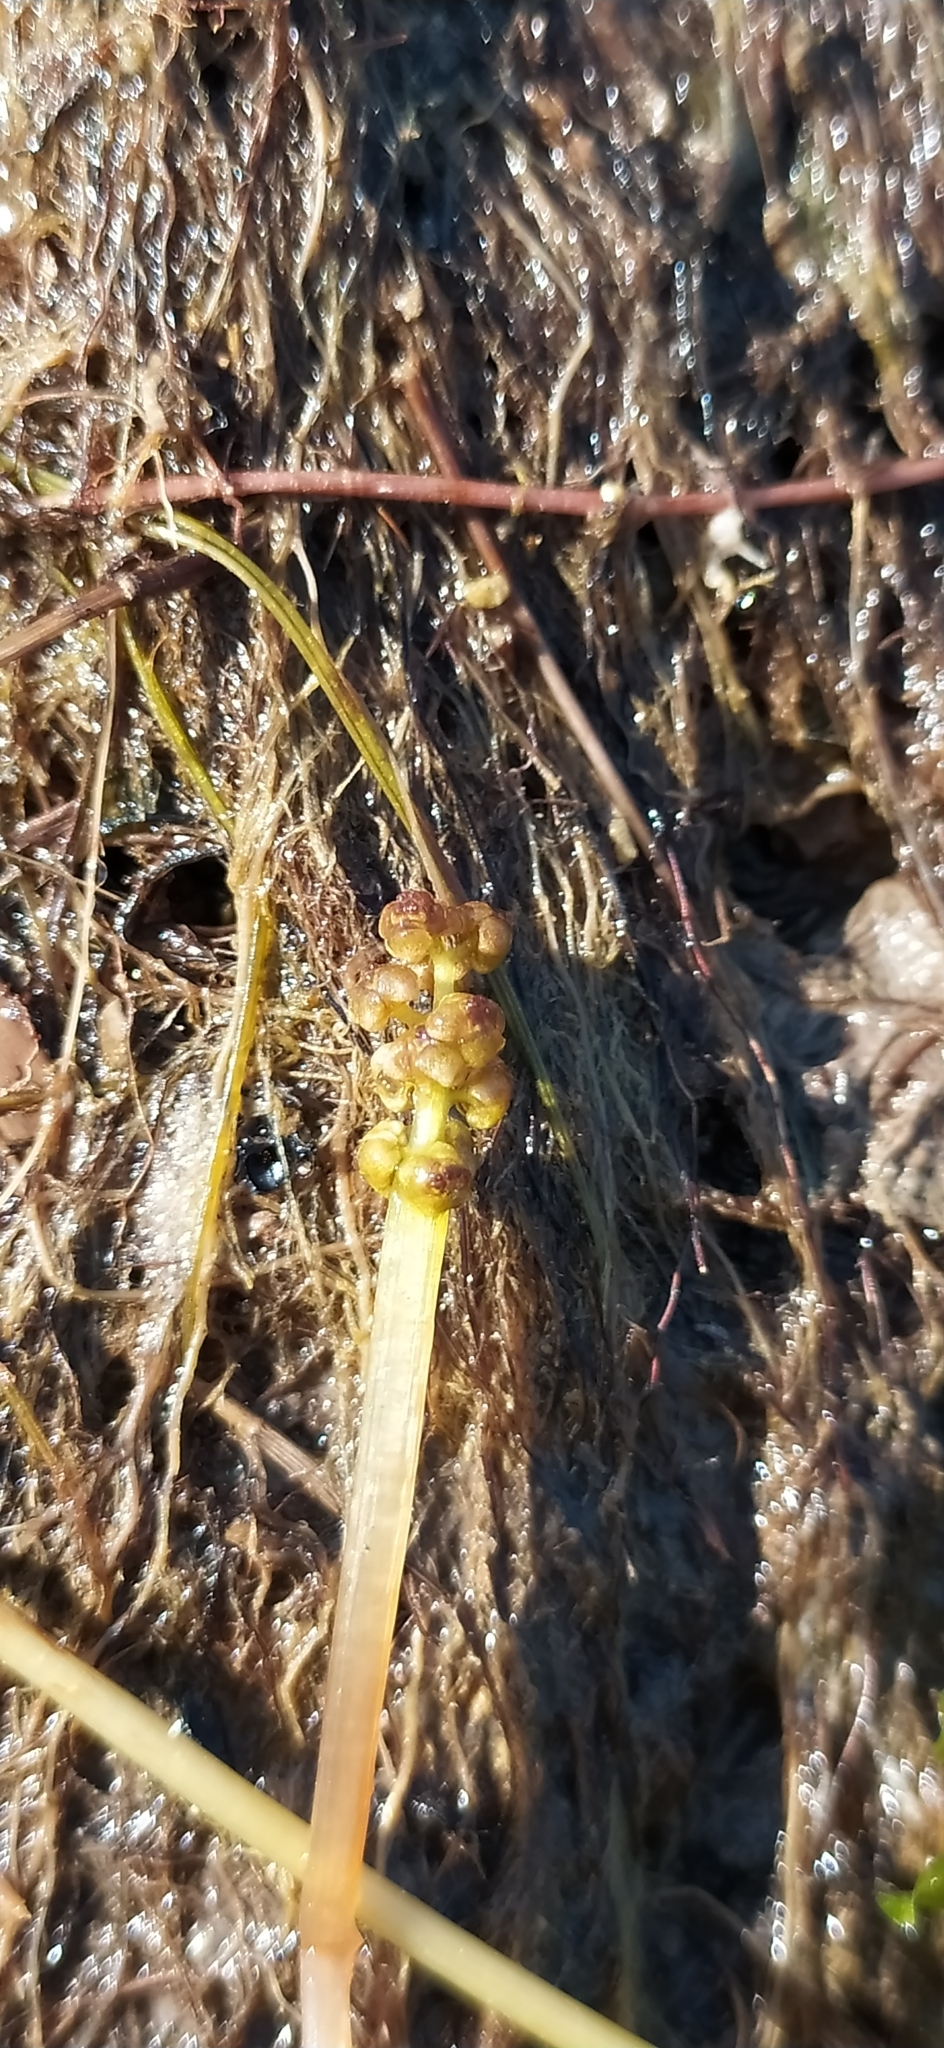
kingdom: Plantae
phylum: Tracheophyta
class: Liliopsida
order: Alismatales
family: Potamogetonaceae
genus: Potamogeton
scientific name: Potamogeton perfoliatus
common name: Perfoliate pondweed
